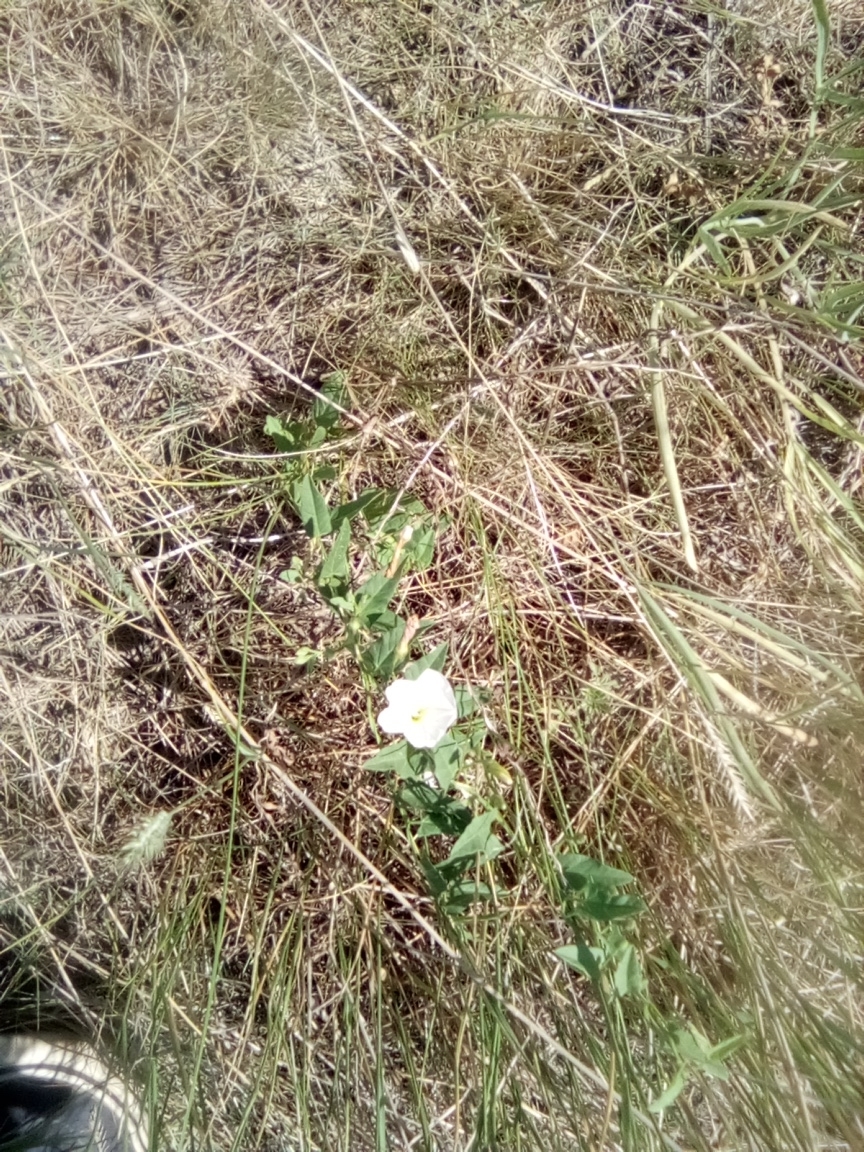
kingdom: Plantae
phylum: Tracheophyta
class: Magnoliopsida
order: Solanales
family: Convolvulaceae
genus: Convolvulus
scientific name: Convolvulus arvensis
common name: Field bindweed
